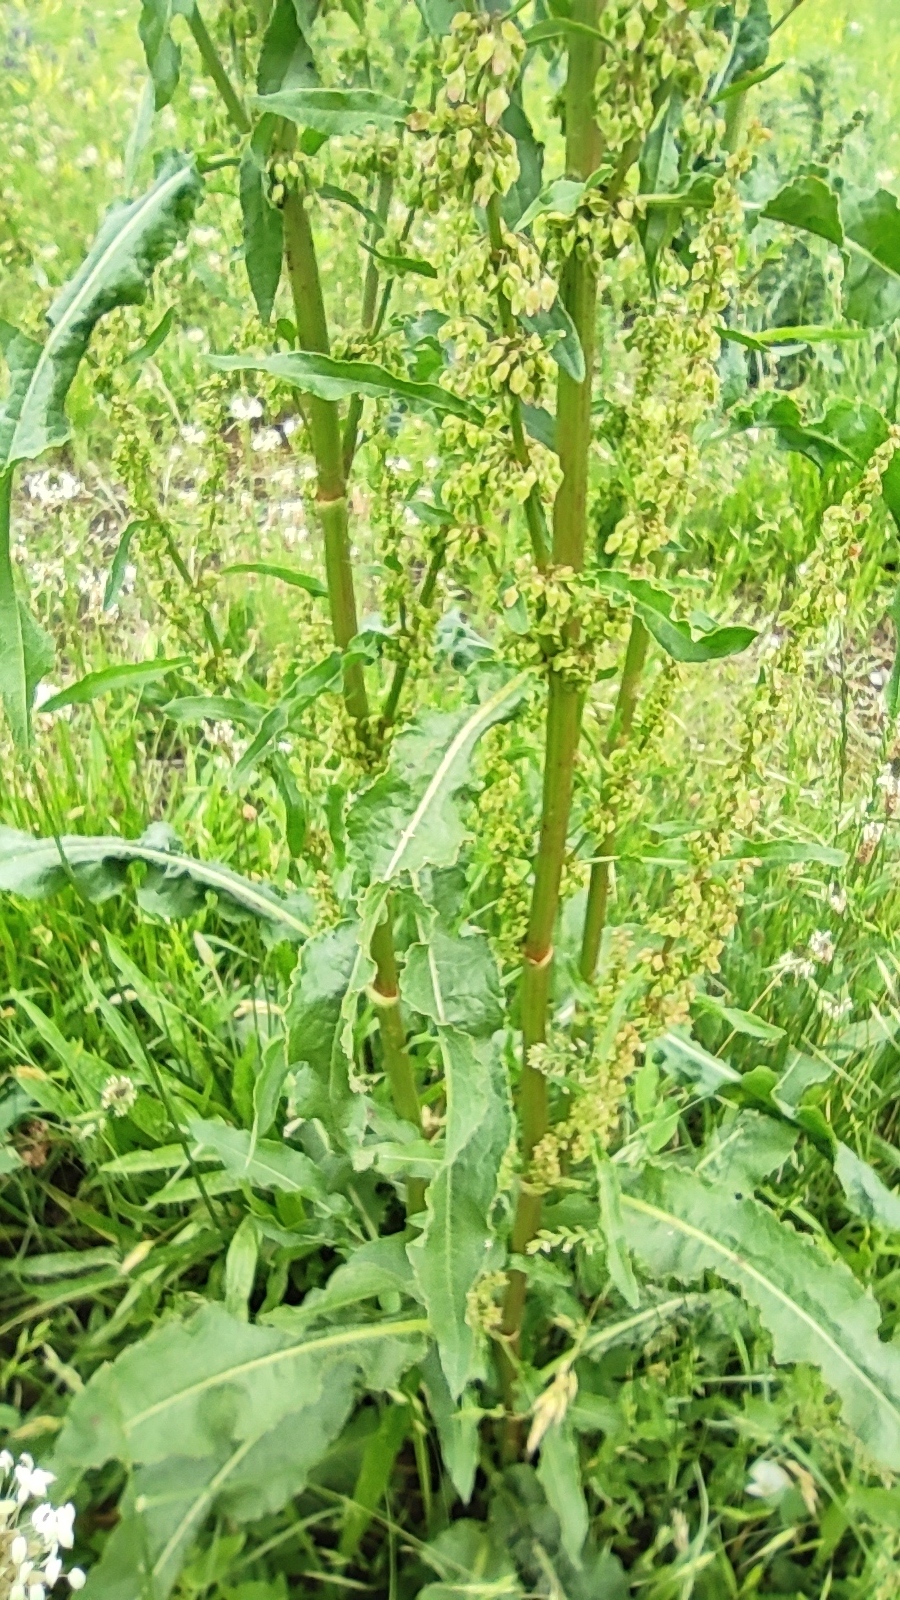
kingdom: Plantae
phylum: Tracheophyta
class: Magnoliopsida
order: Caryophyllales
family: Polygonaceae
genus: Rumex
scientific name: Rumex crispus
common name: Curled dock
